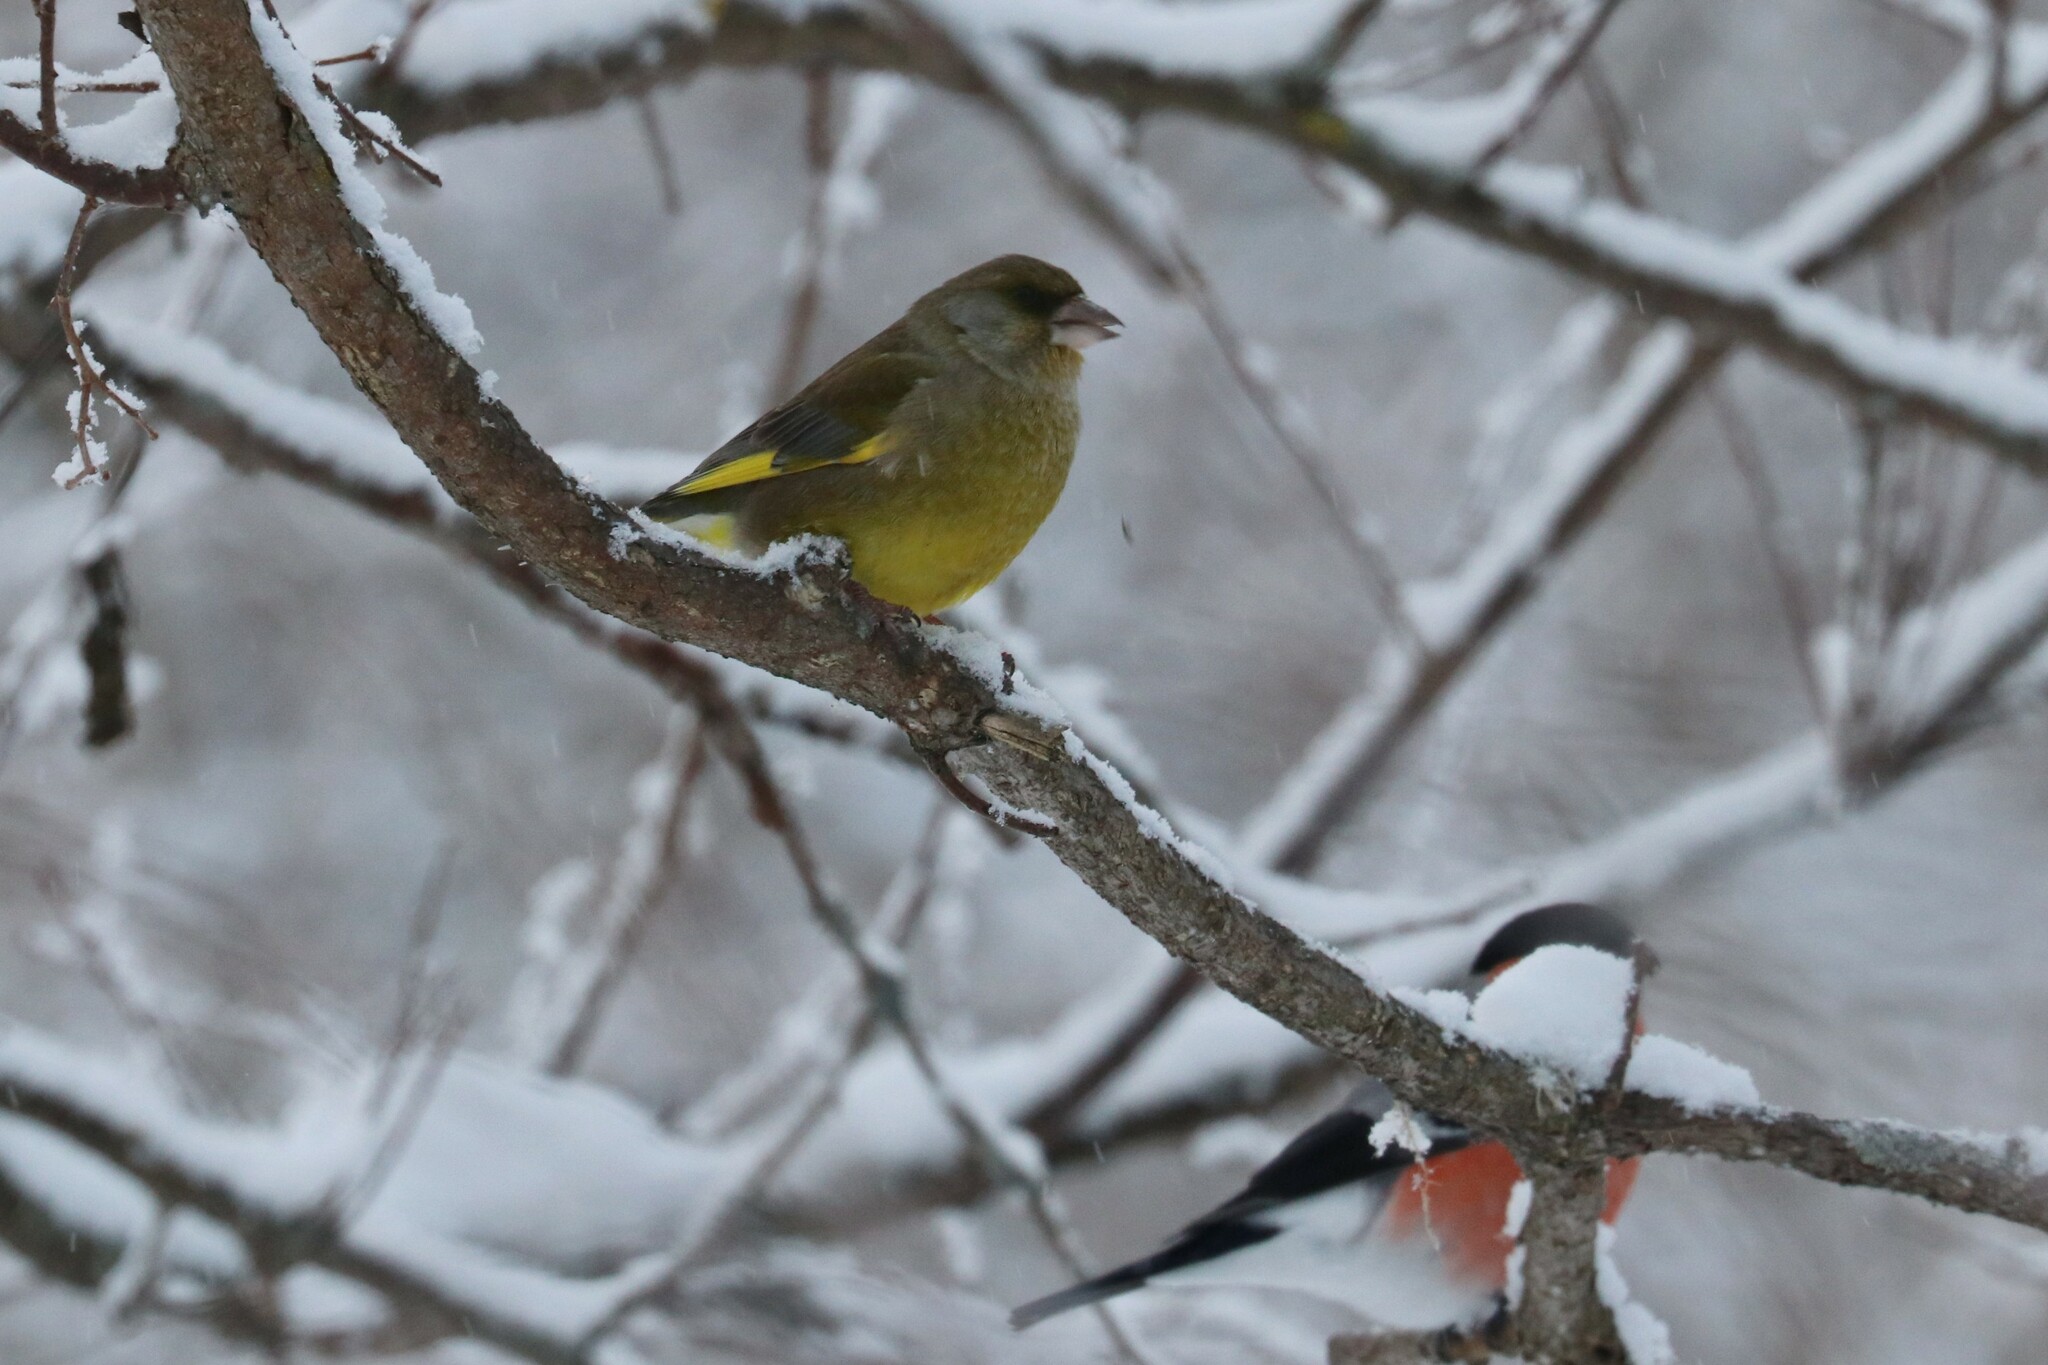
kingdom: Plantae
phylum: Tracheophyta
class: Liliopsida
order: Poales
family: Poaceae
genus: Chloris
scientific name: Chloris chloris
